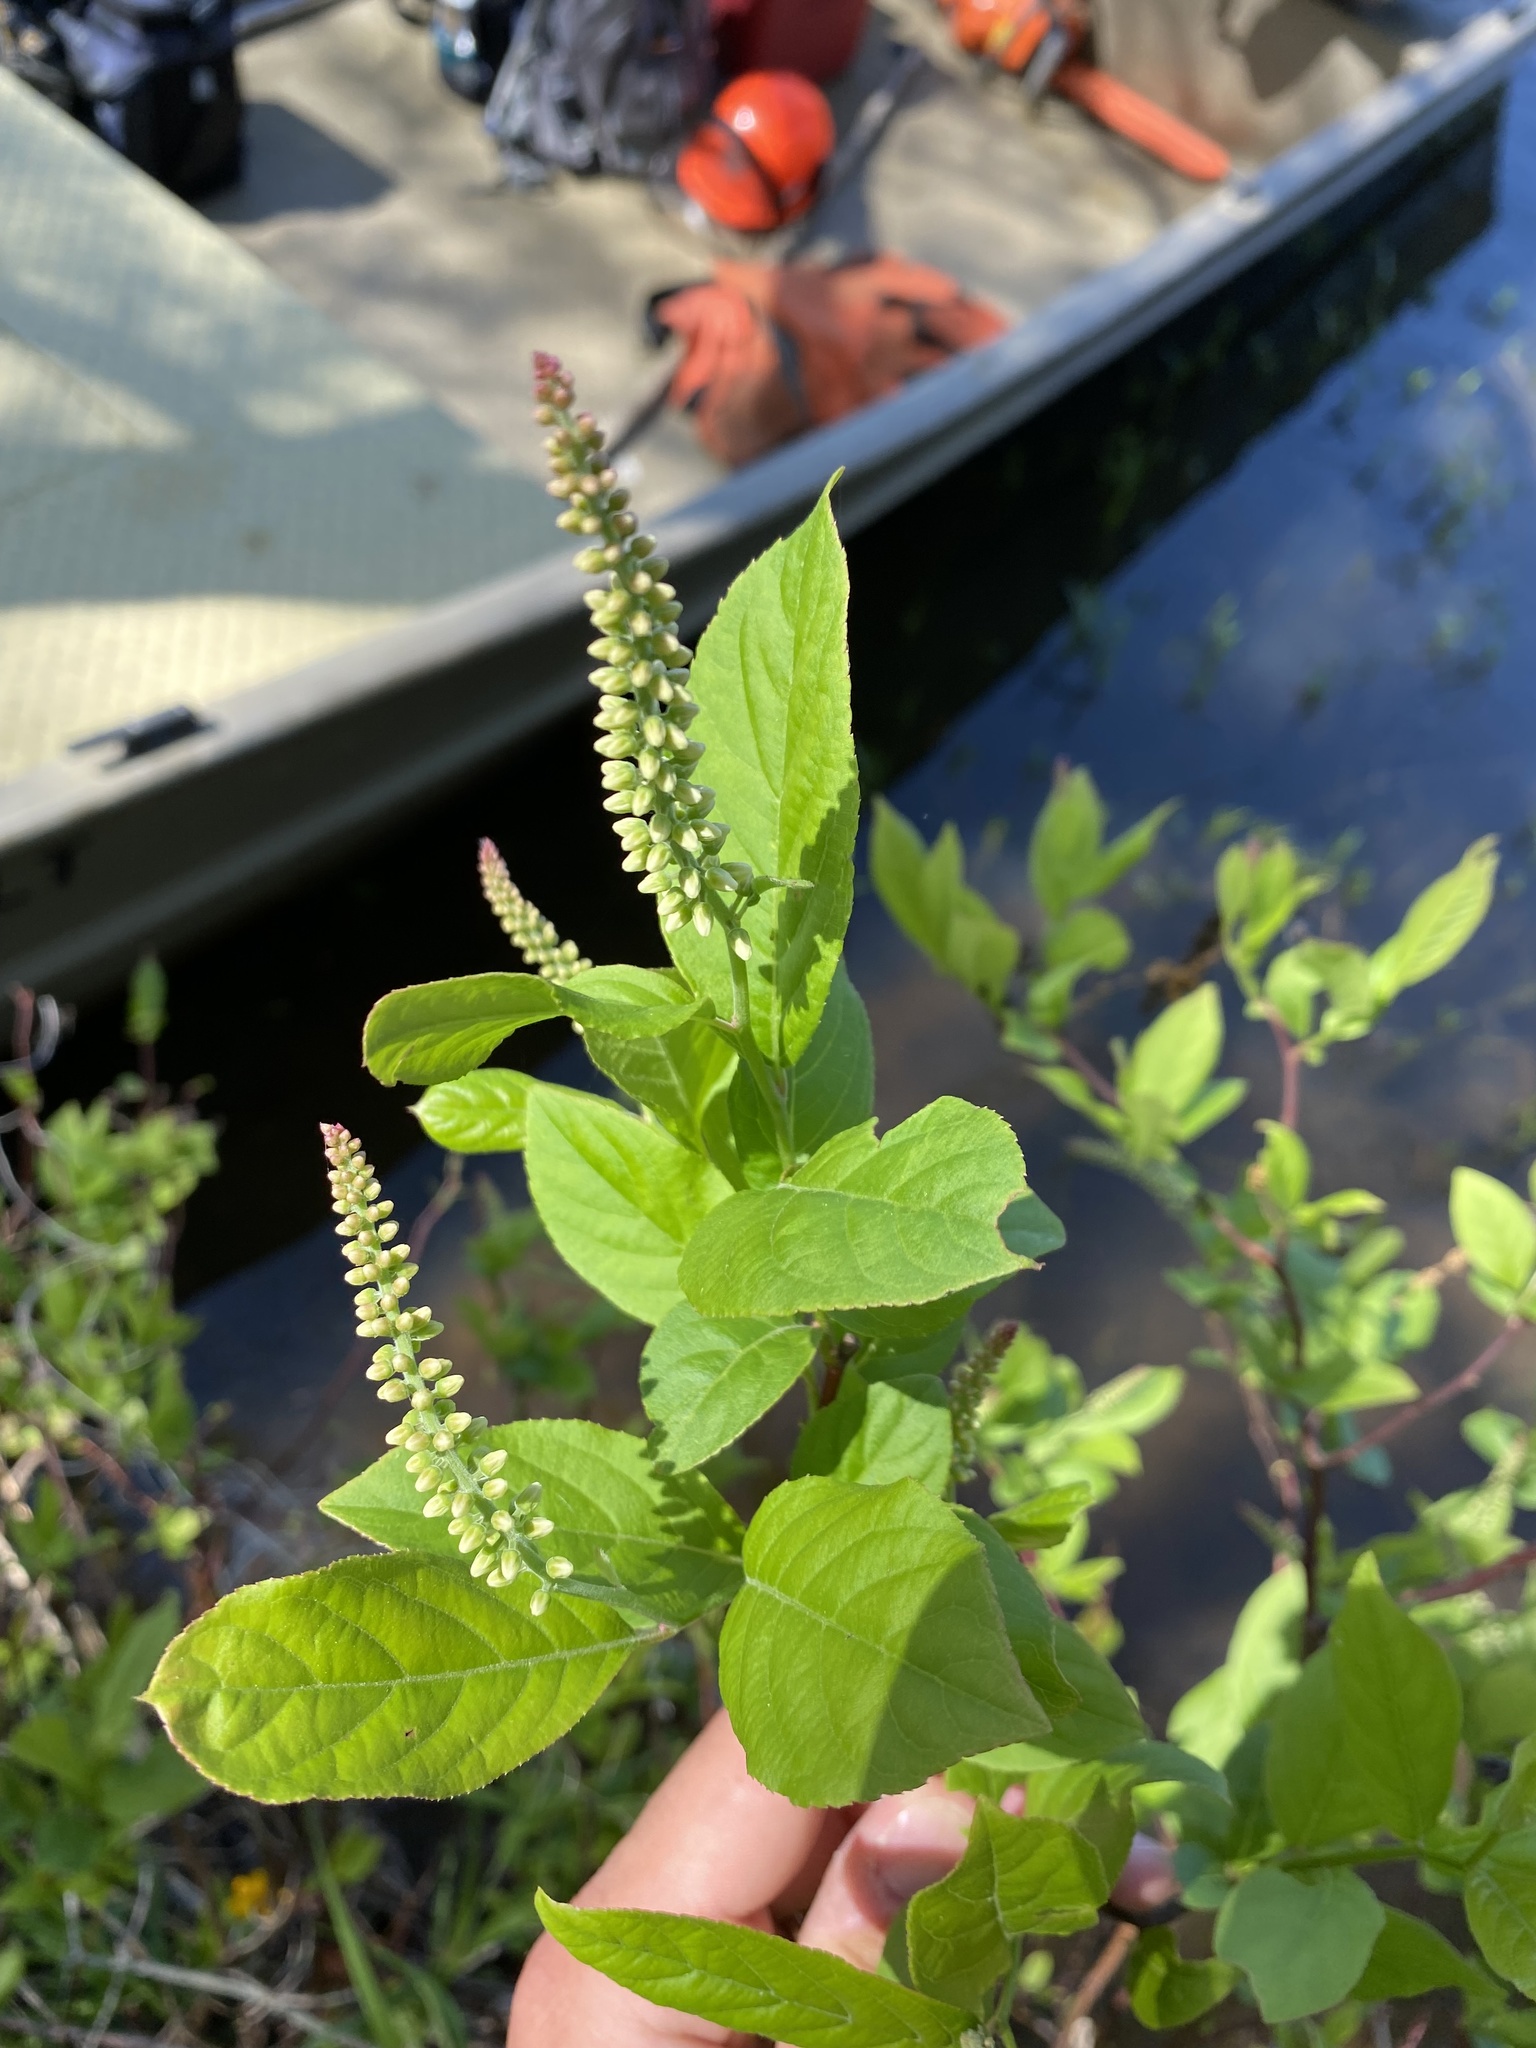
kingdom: Plantae
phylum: Tracheophyta
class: Magnoliopsida
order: Saxifragales
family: Iteaceae
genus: Itea
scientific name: Itea virginica
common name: Sweetspire
